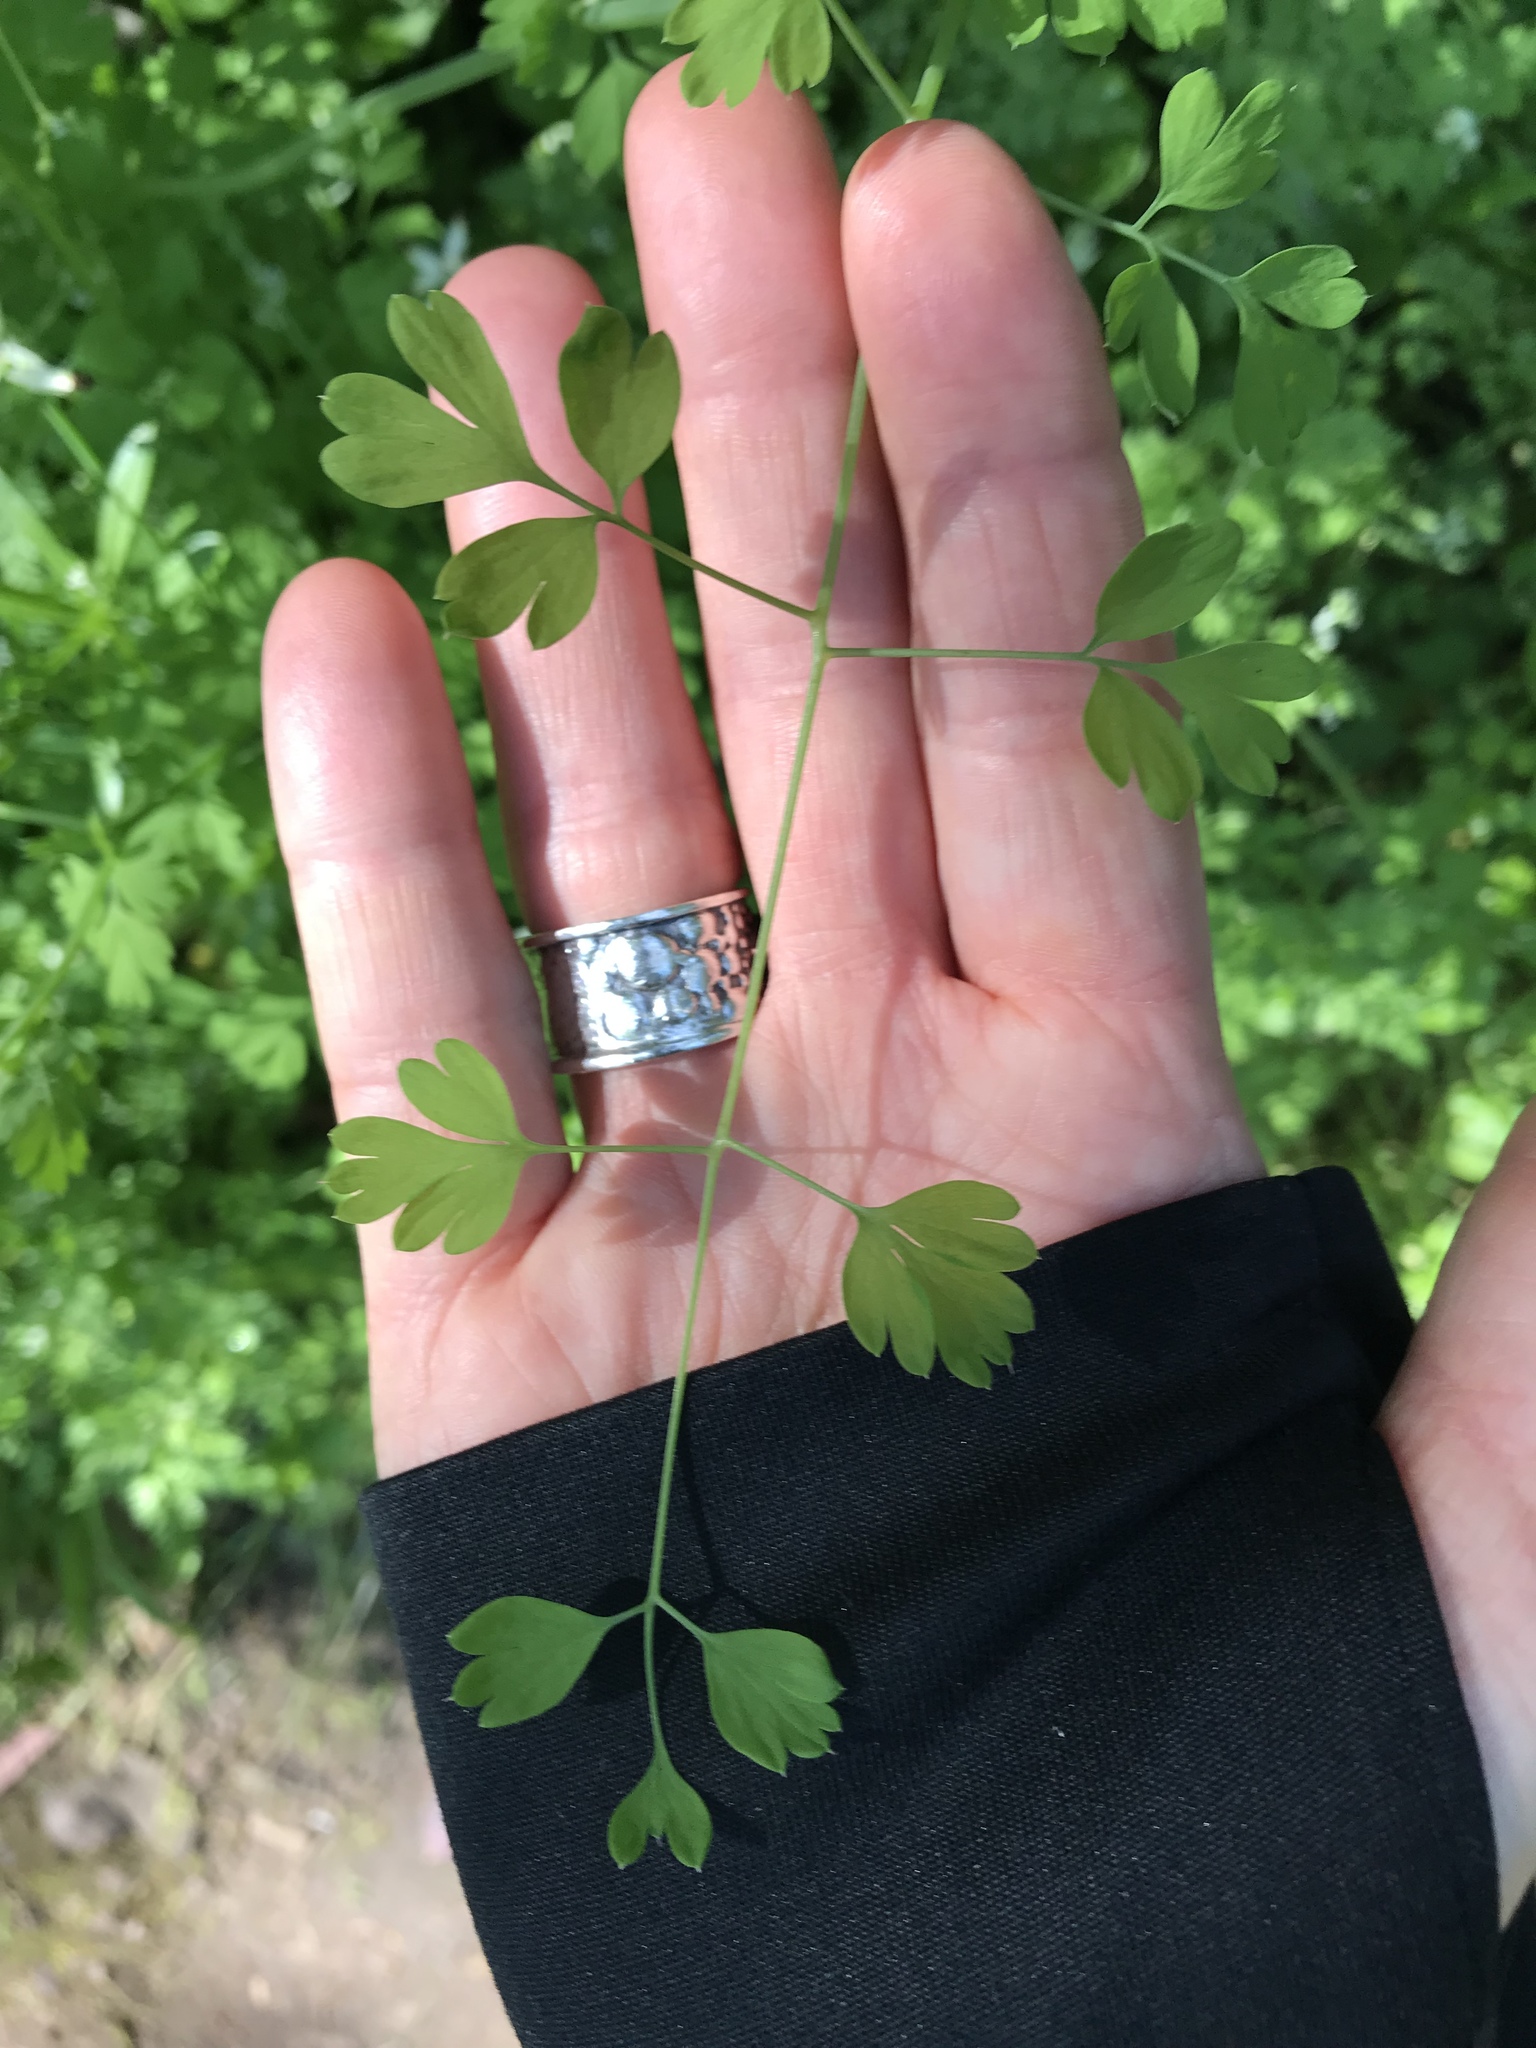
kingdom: Plantae
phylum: Tracheophyta
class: Magnoliopsida
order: Ranunculales
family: Papaveraceae
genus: Fumaria
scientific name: Fumaria capreolata
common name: White ramping-fumitory
